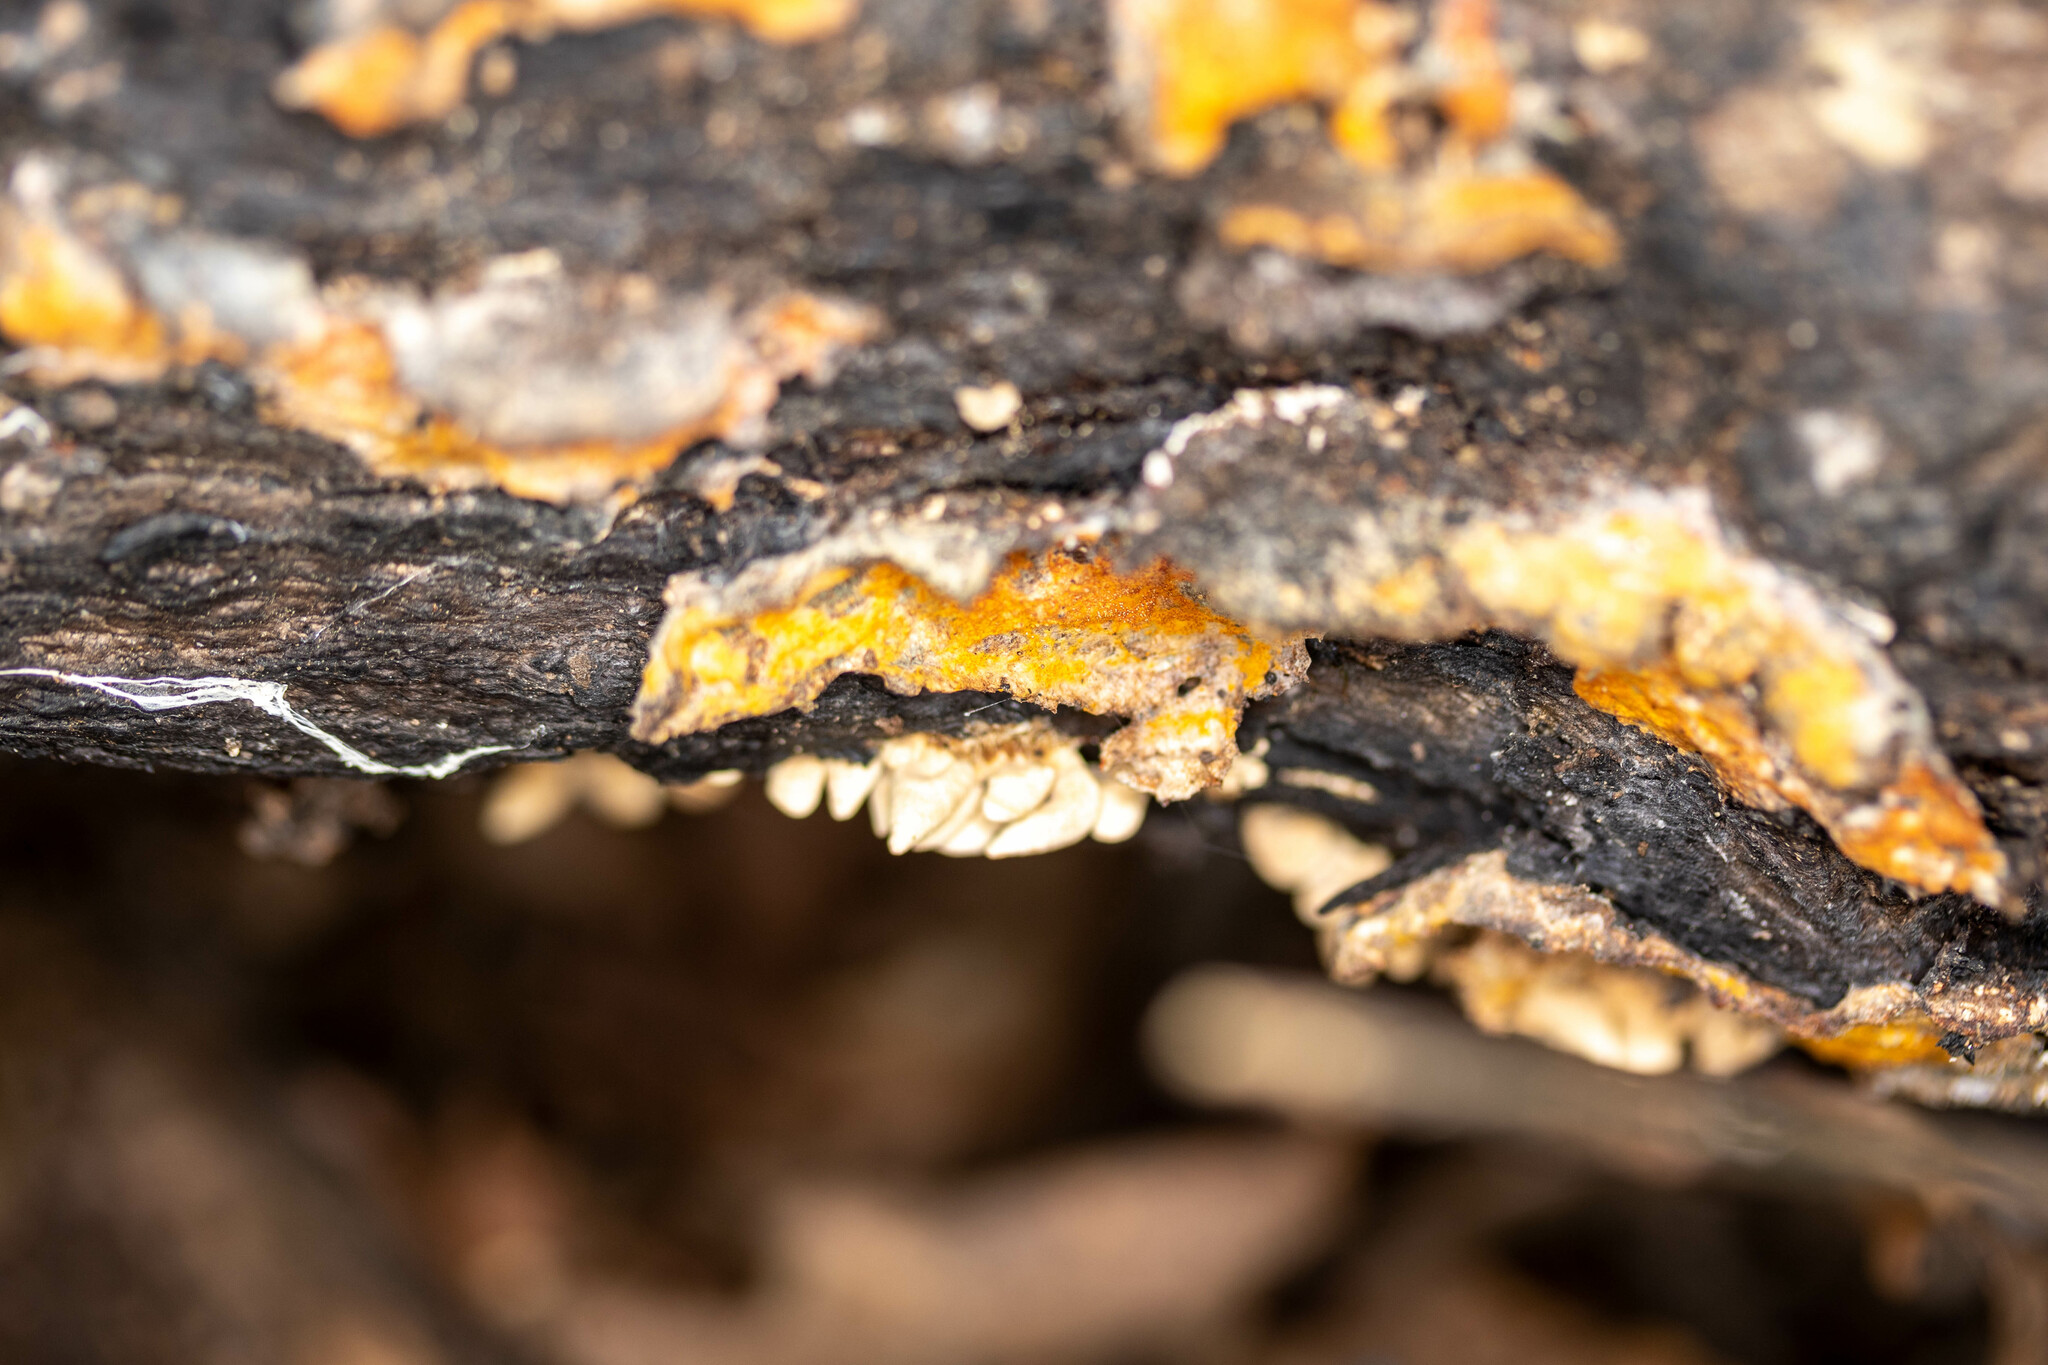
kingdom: Fungi
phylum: Ascomycota
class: Sordariomycetes
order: Hypocreales
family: Hypocreaceae
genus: Hypomyces
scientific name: Hypomyces aurantius
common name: Orange polypore mould
